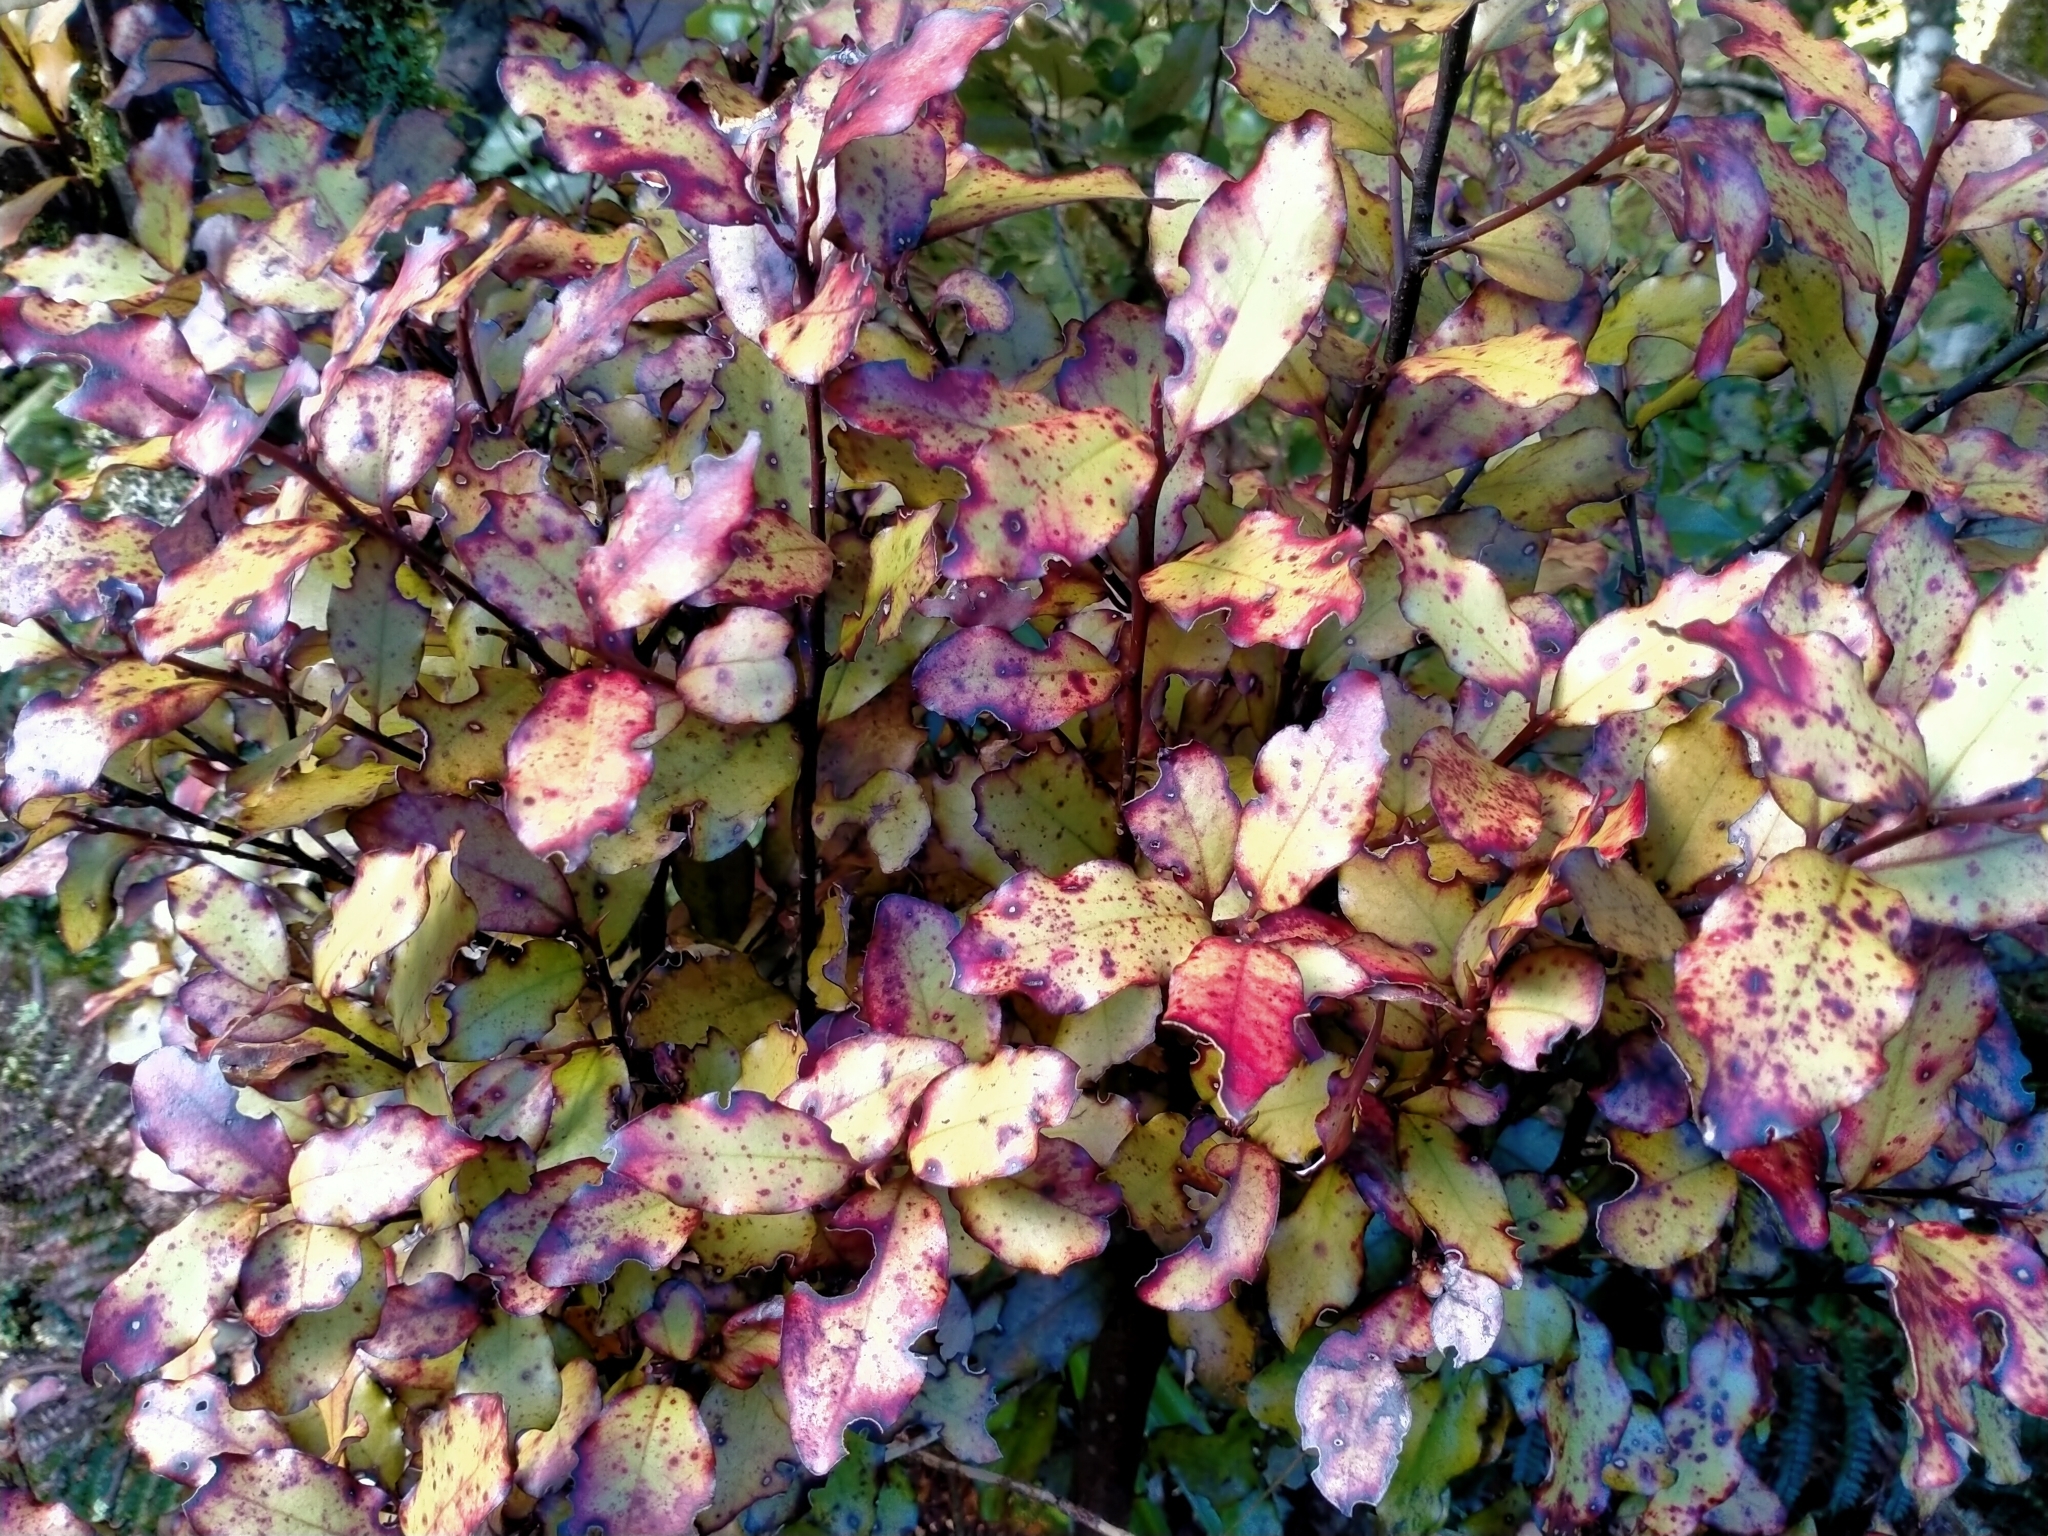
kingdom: Plantae
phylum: Tracheophyta
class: Magnoliopsida
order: Canellales
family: Winteraceae
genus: Pseudowintera
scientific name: Pseudowintera colorata
